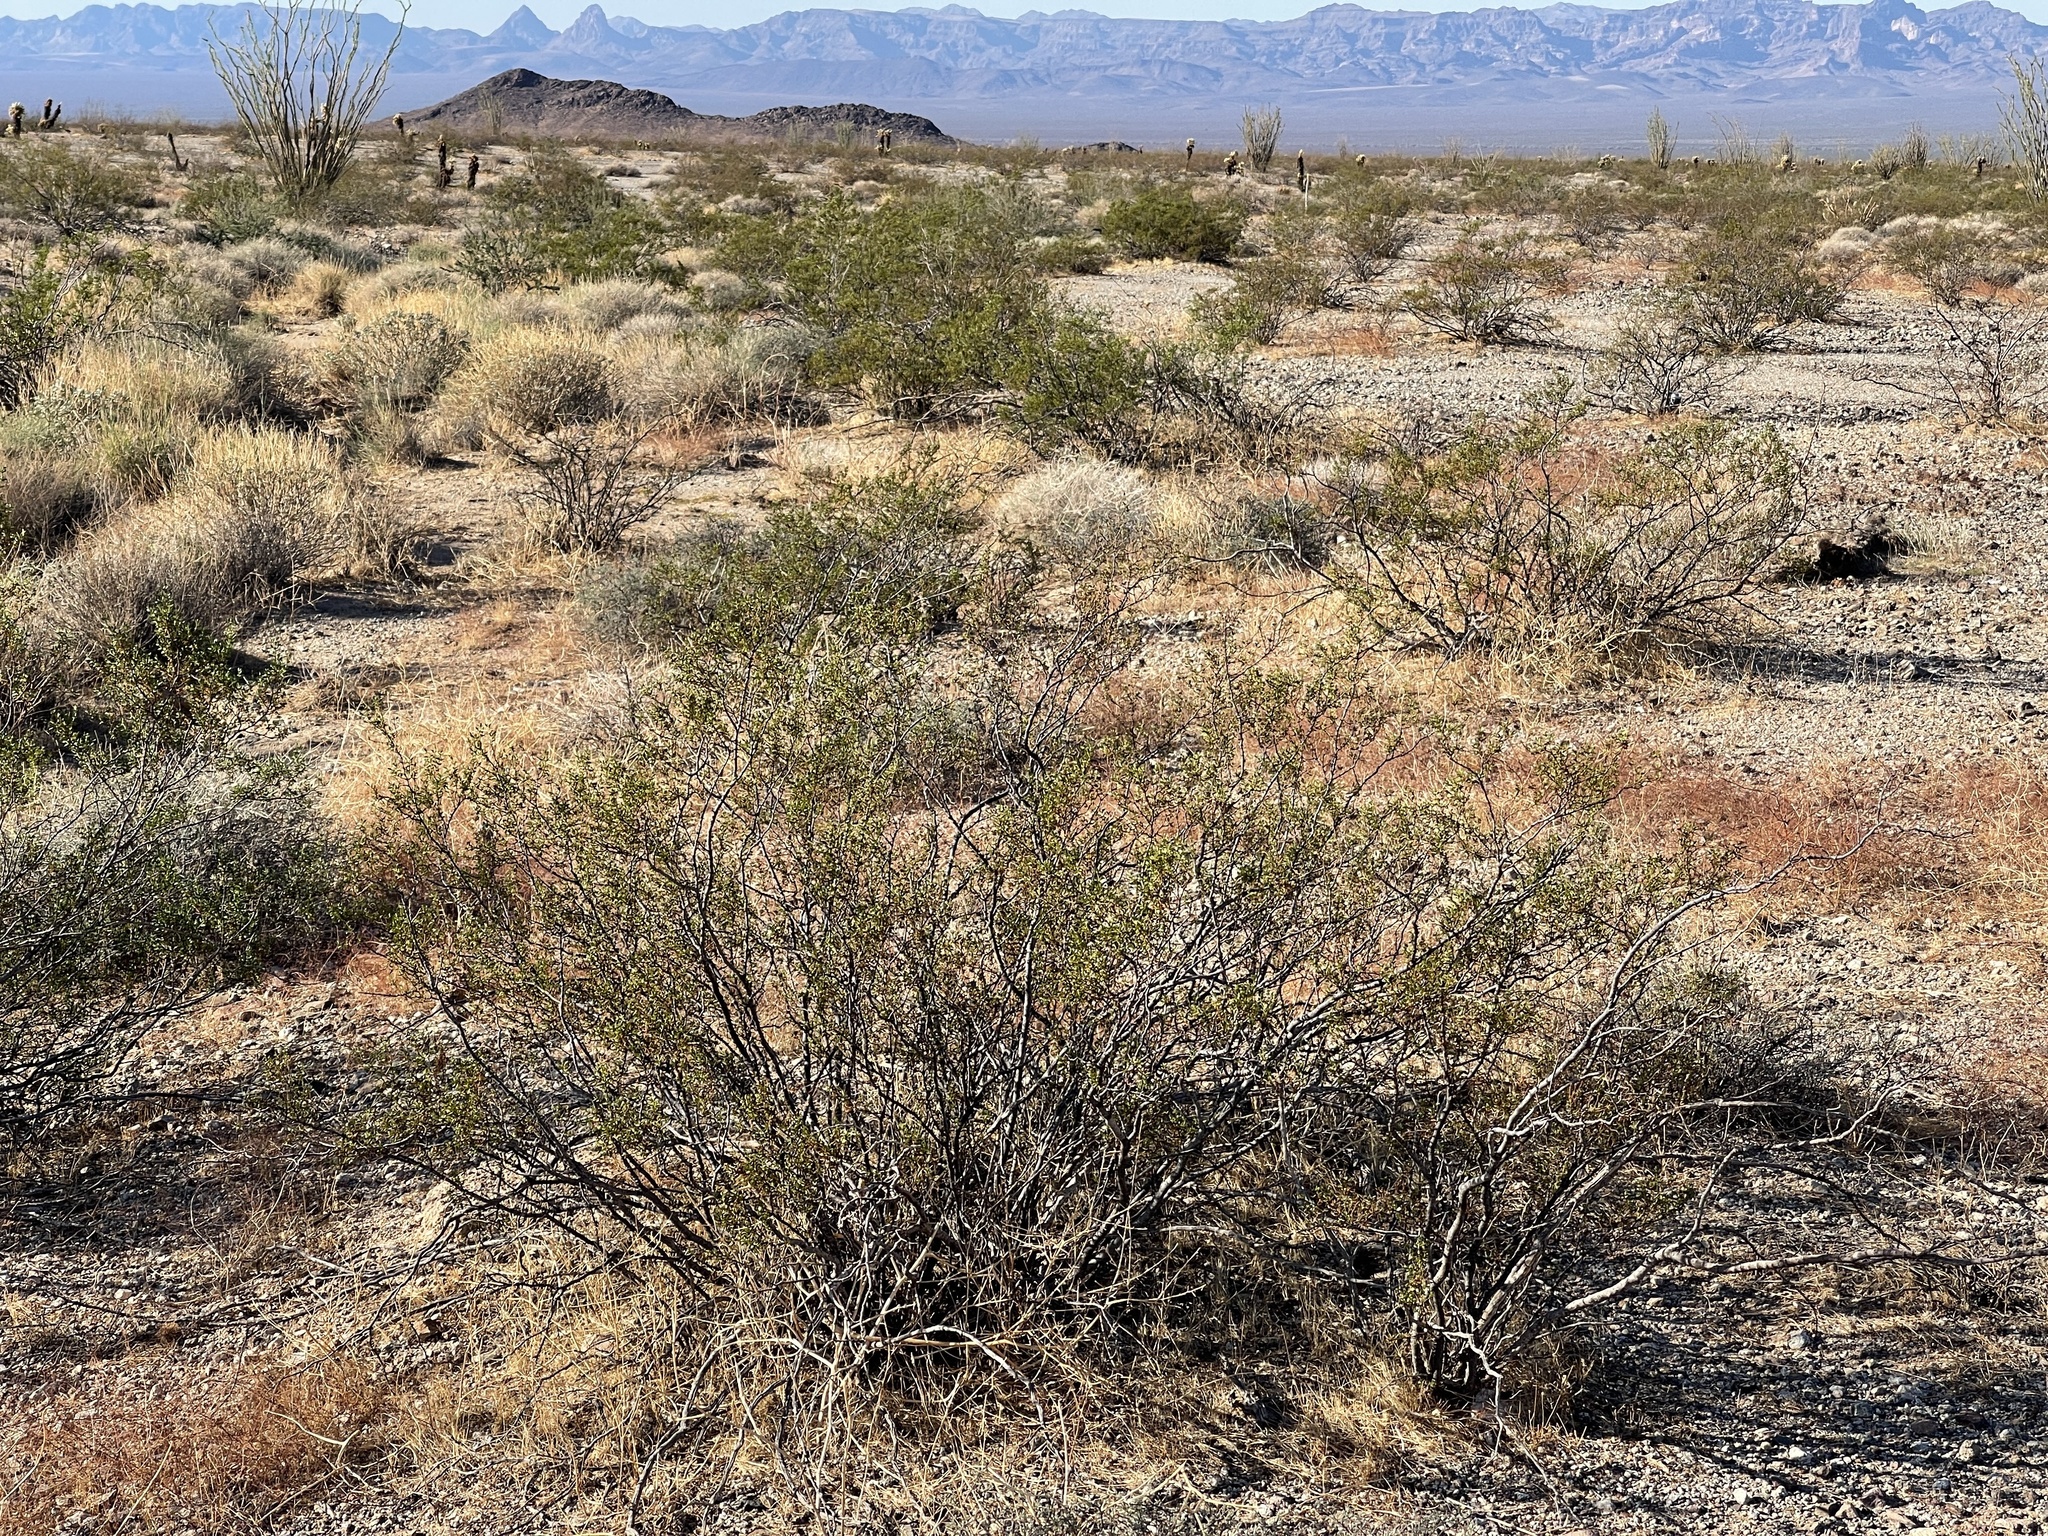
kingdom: Plantae
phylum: Tracheophyta
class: Magnoliopsida
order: Zygophyllales
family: Zygophyllaceae
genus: Larrea
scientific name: Larrea tridentata
